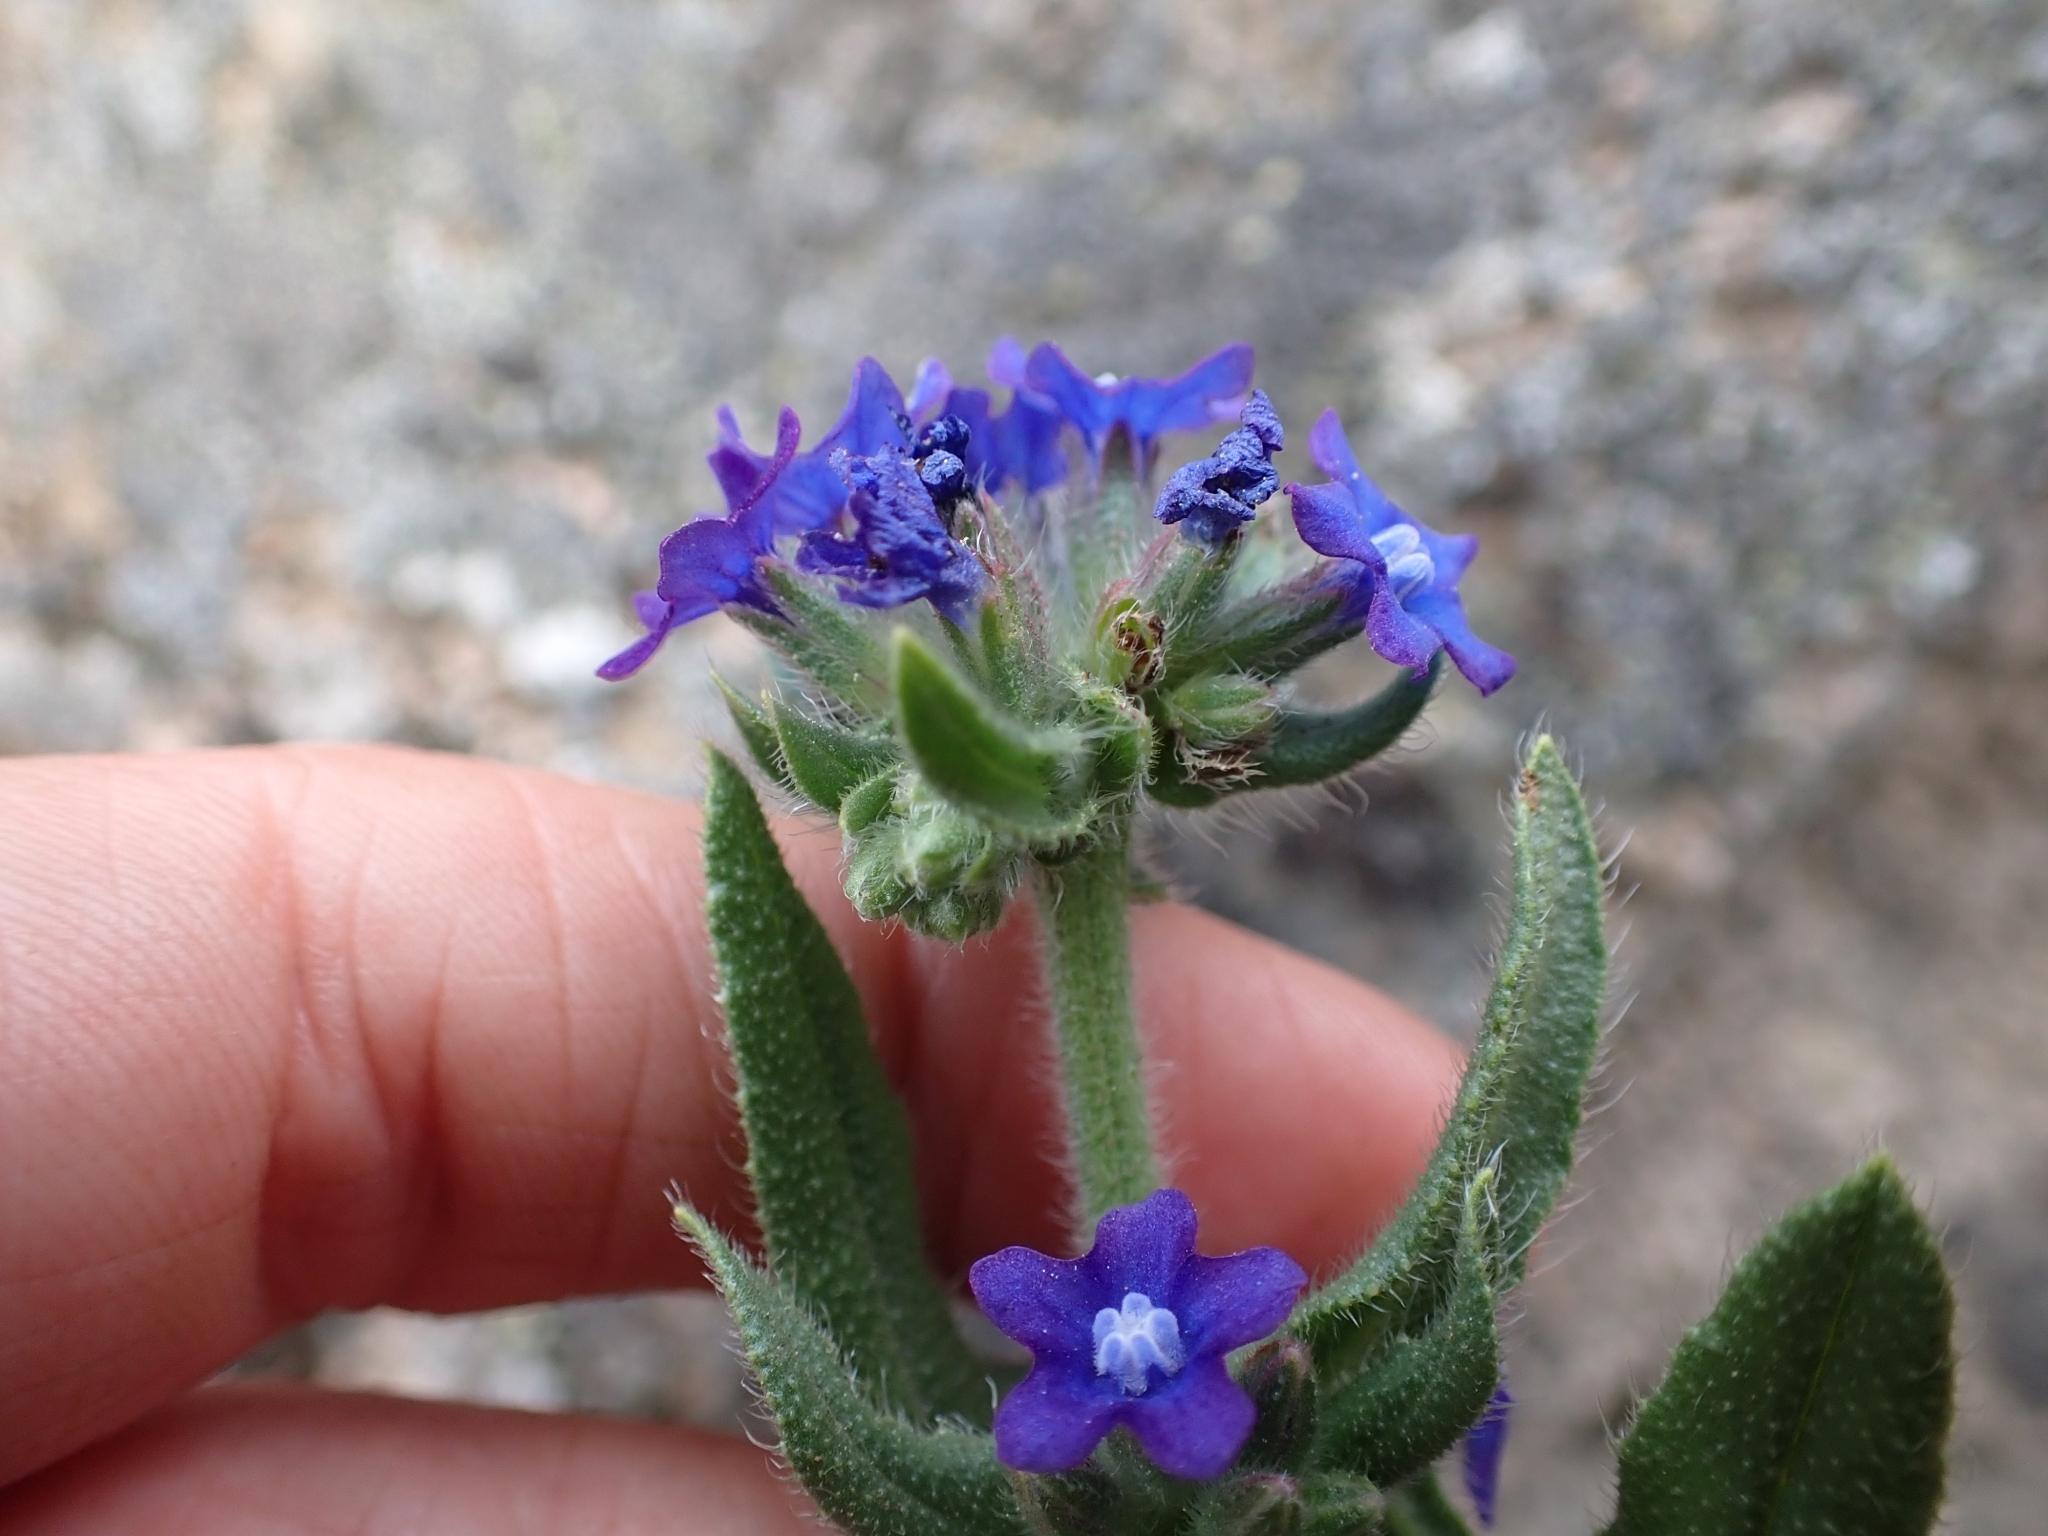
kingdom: Plantae
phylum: Tracheophyta
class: Magnoliopsida
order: Boraginales
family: Boraginaceae
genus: Anchusa
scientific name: Anchusa officinalis
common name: Alkanet
